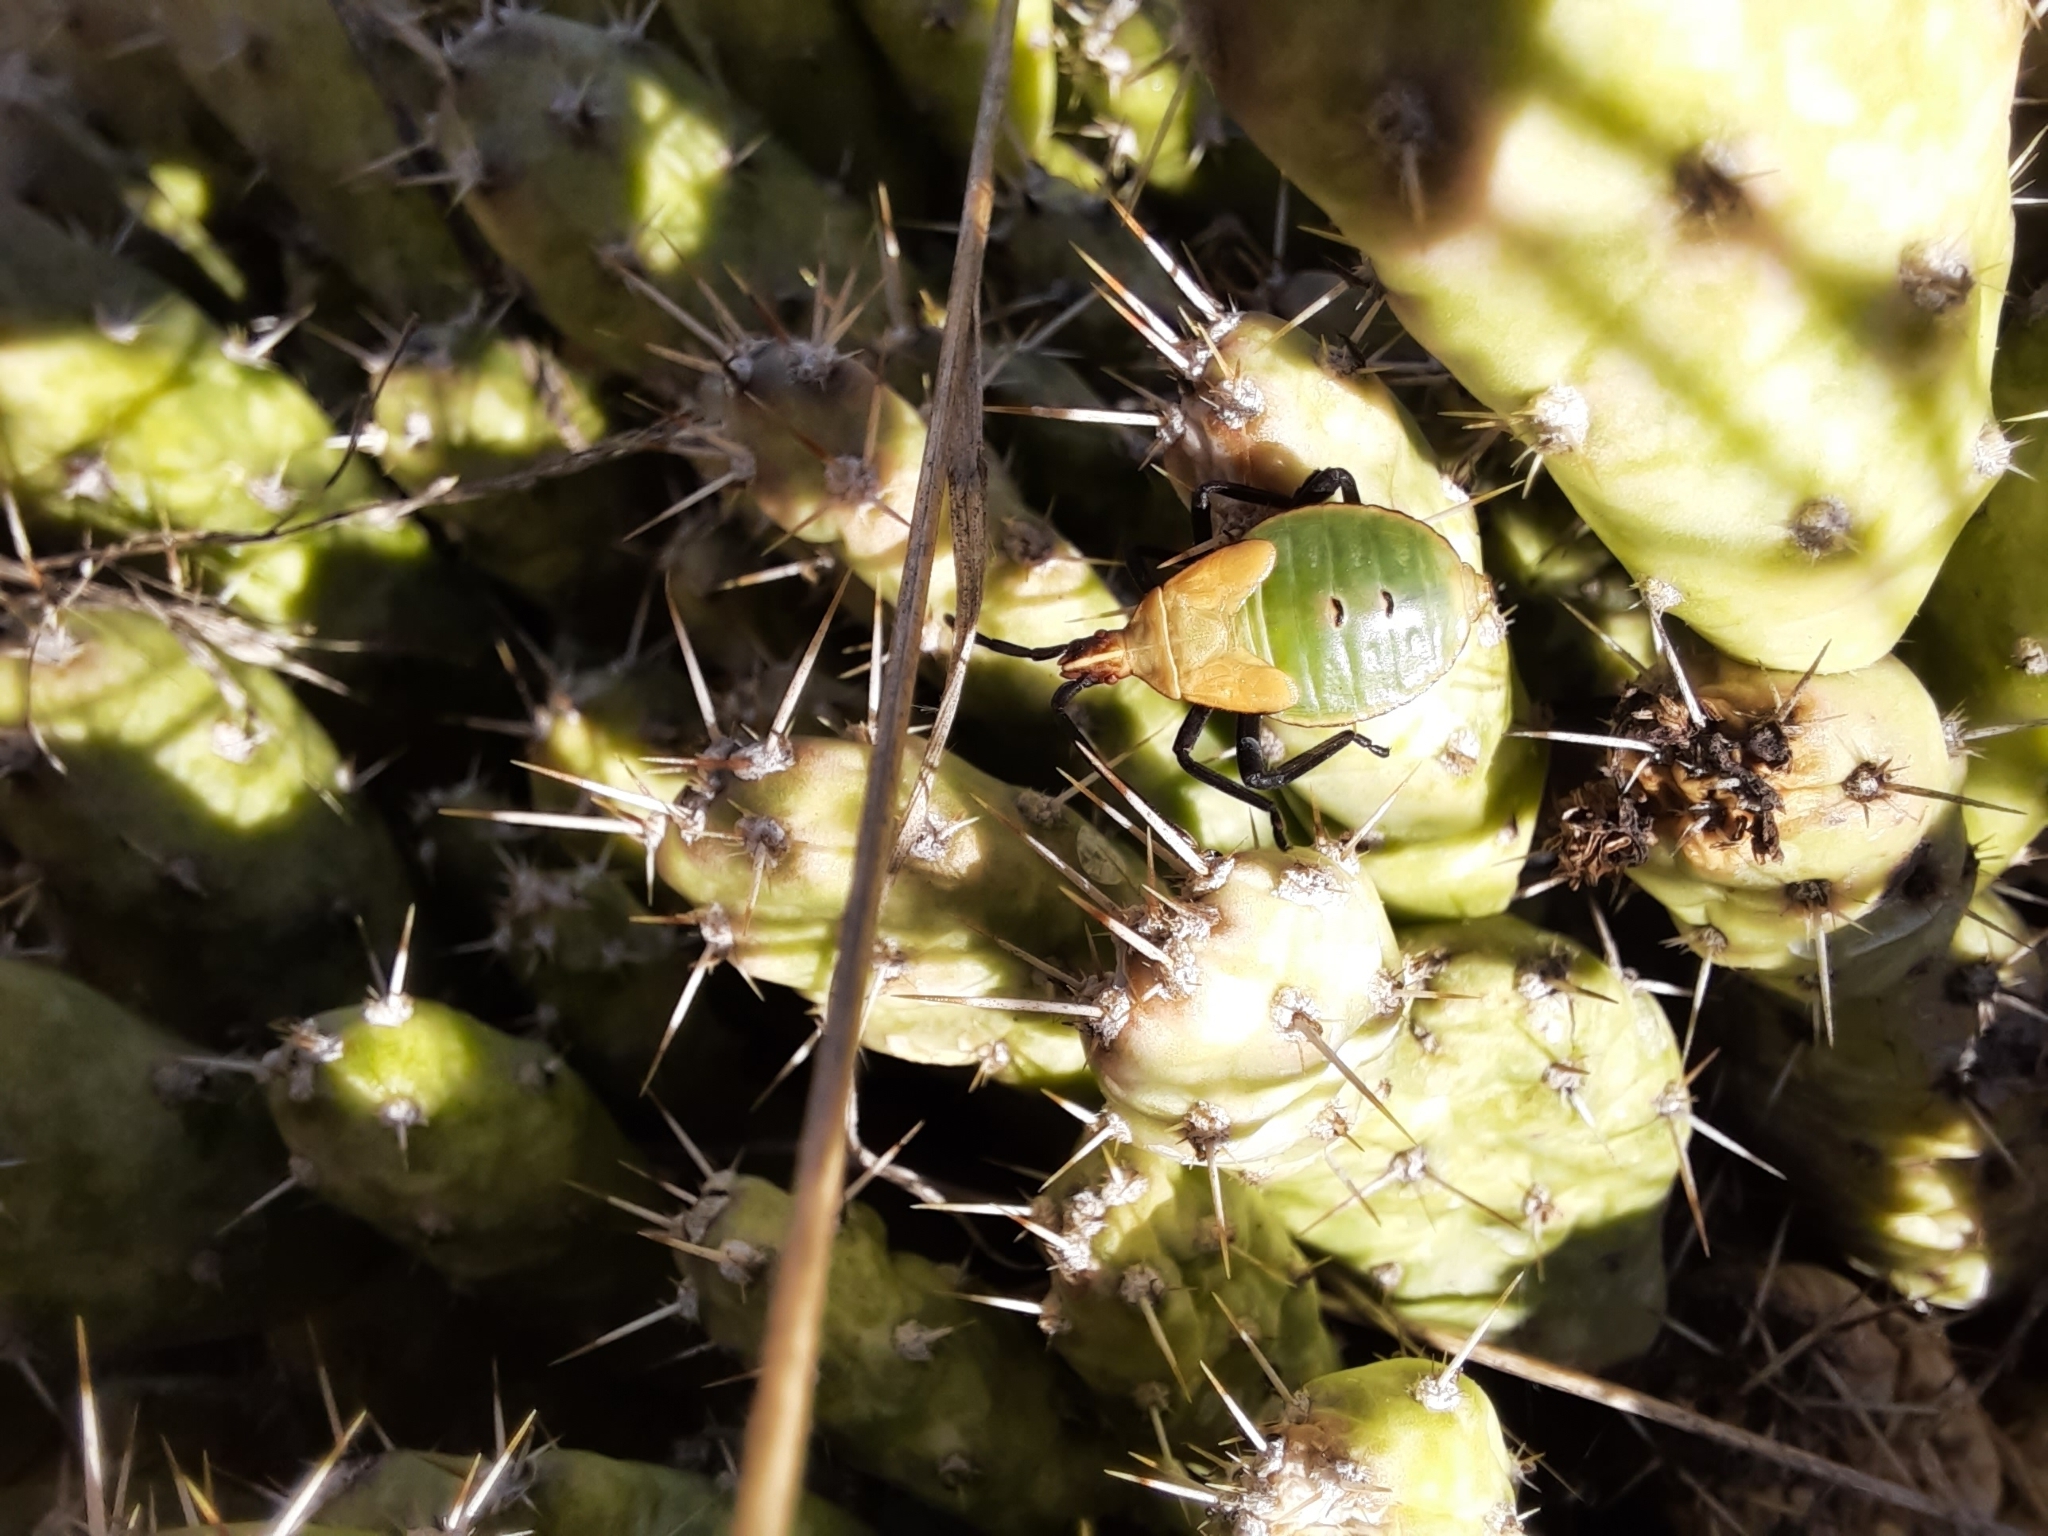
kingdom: Animalia
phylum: Arthropoda
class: Insecta
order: Hemiptera
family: Coreidae
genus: Chelinidea
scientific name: Chelinidea vittiger
